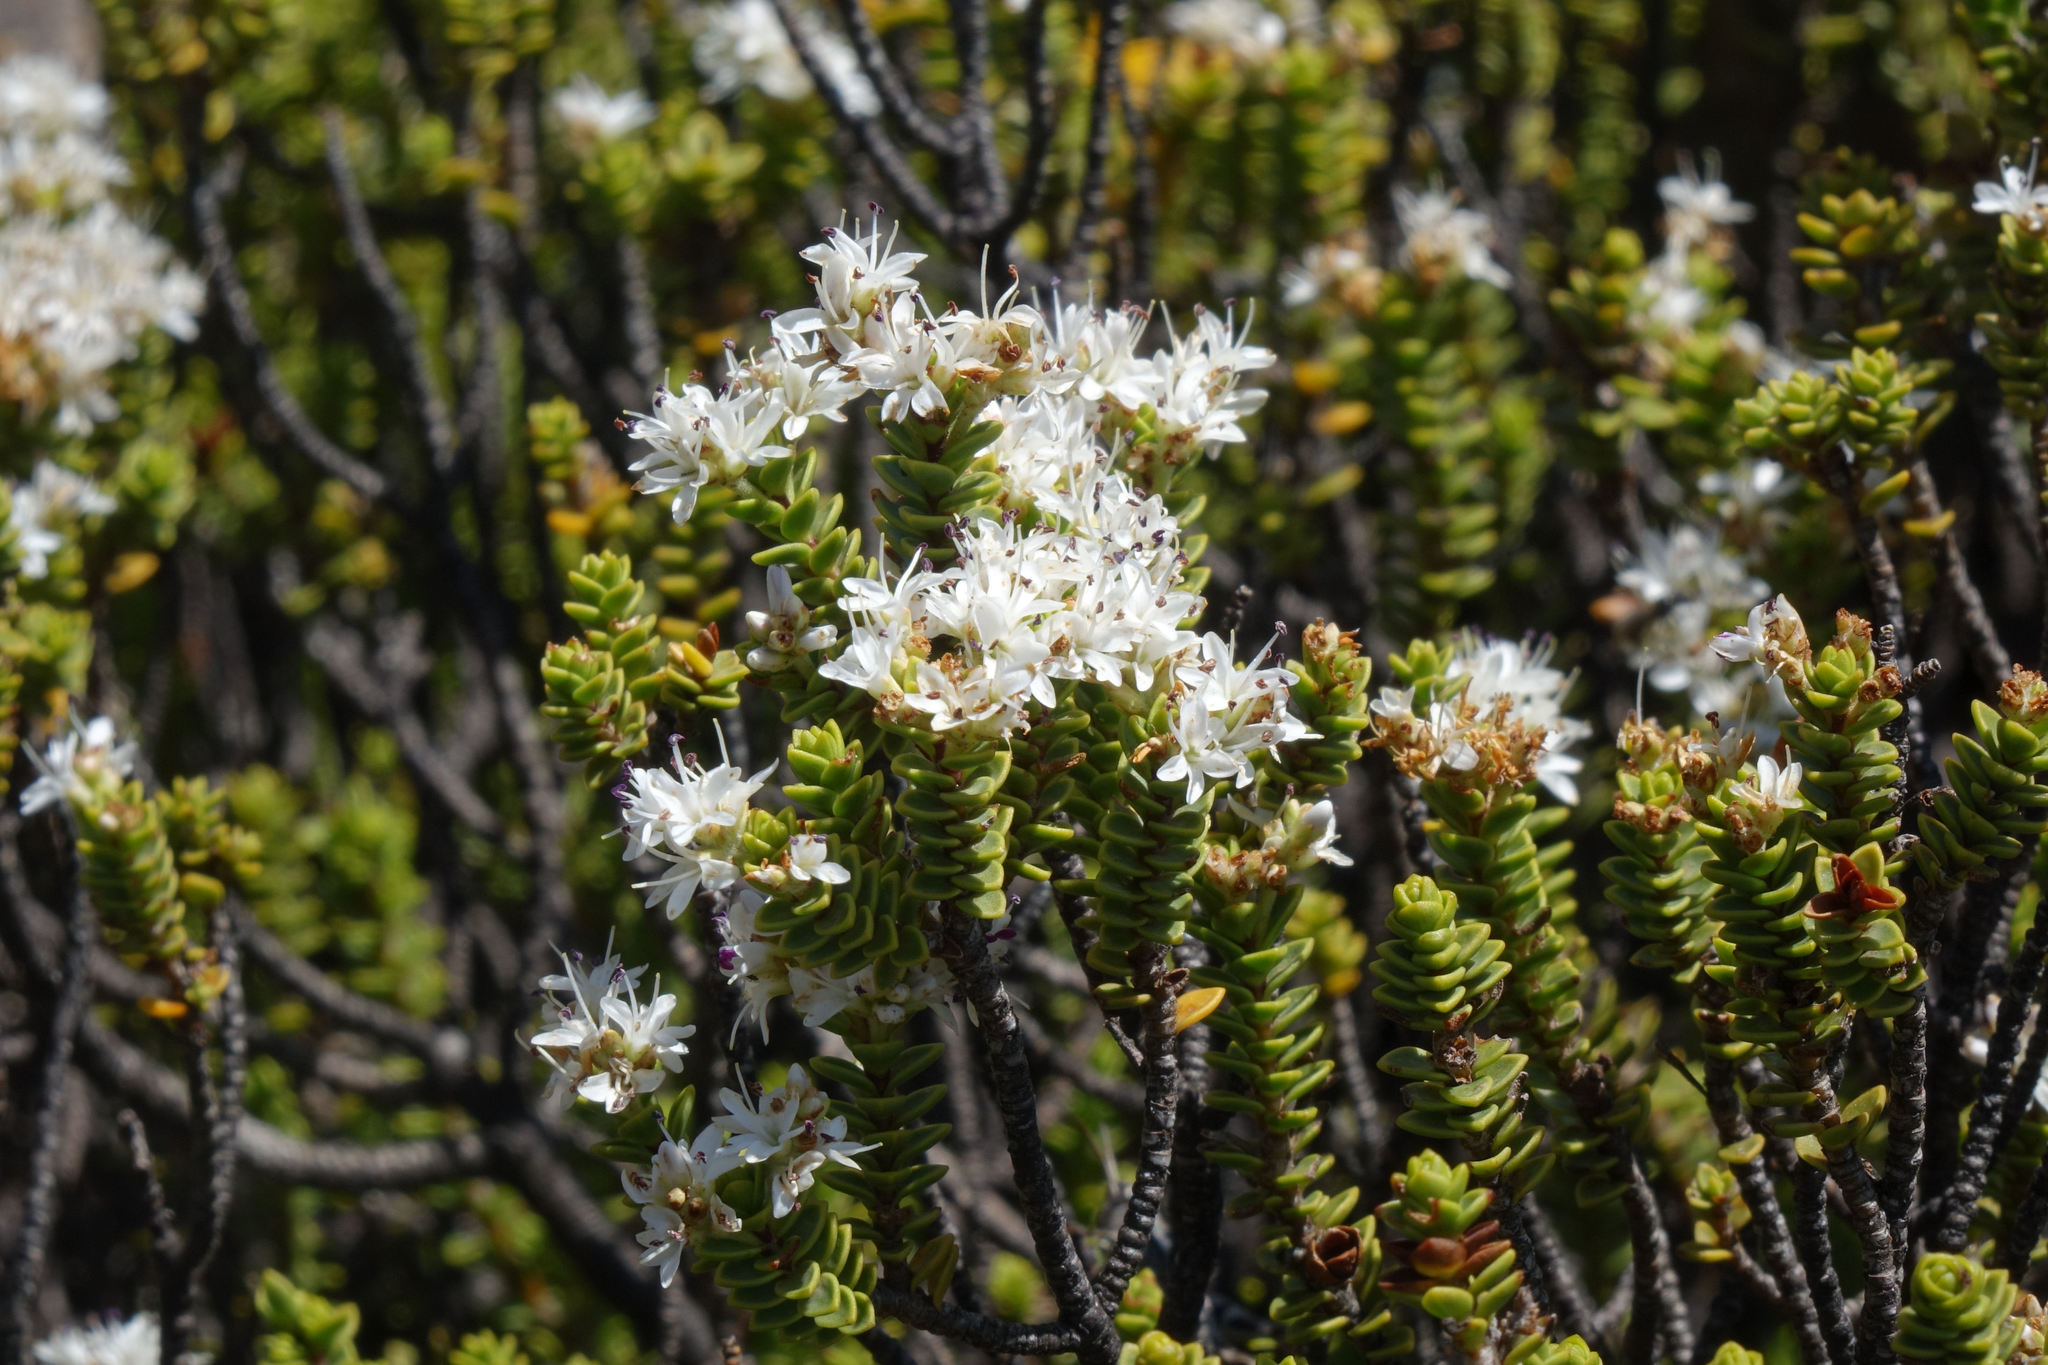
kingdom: Plantae
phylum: Tracheophyta
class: Magnoliopsida
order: Lamiales
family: Plantaginaceae
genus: Veronica
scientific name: Veronica buchananii
